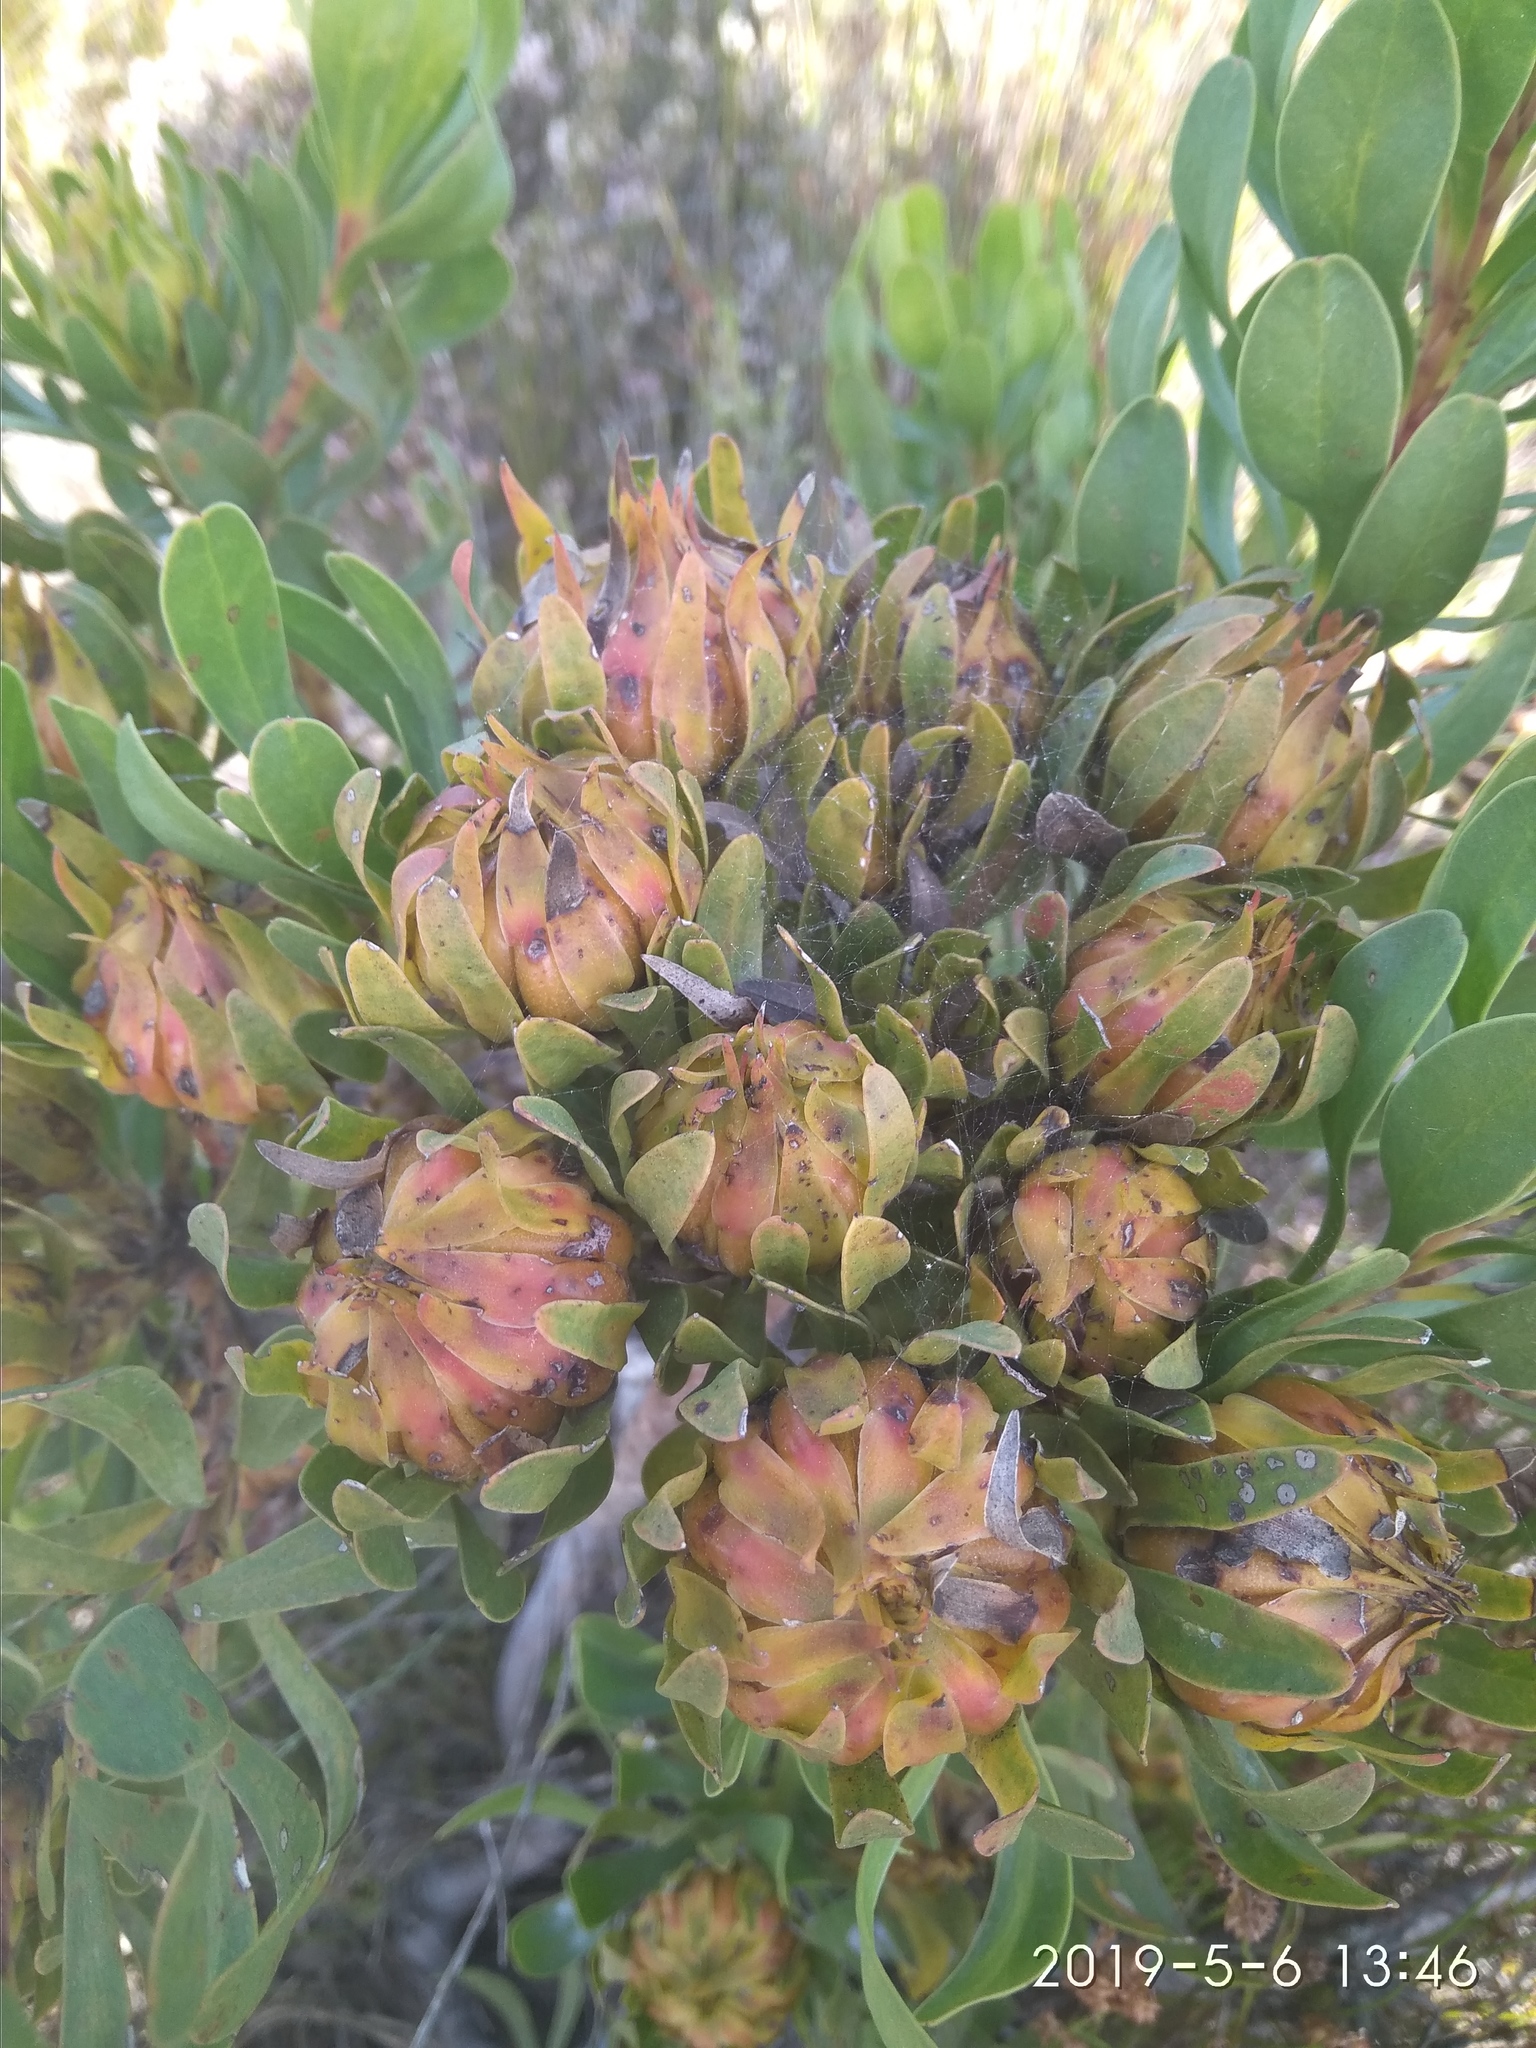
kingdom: Plantae
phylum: Tracheophyta
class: Magnoliopsida
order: Proteales
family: Proteaceae
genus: Aulax
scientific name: Aulax umbellata
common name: Broad-leaf featherbush
